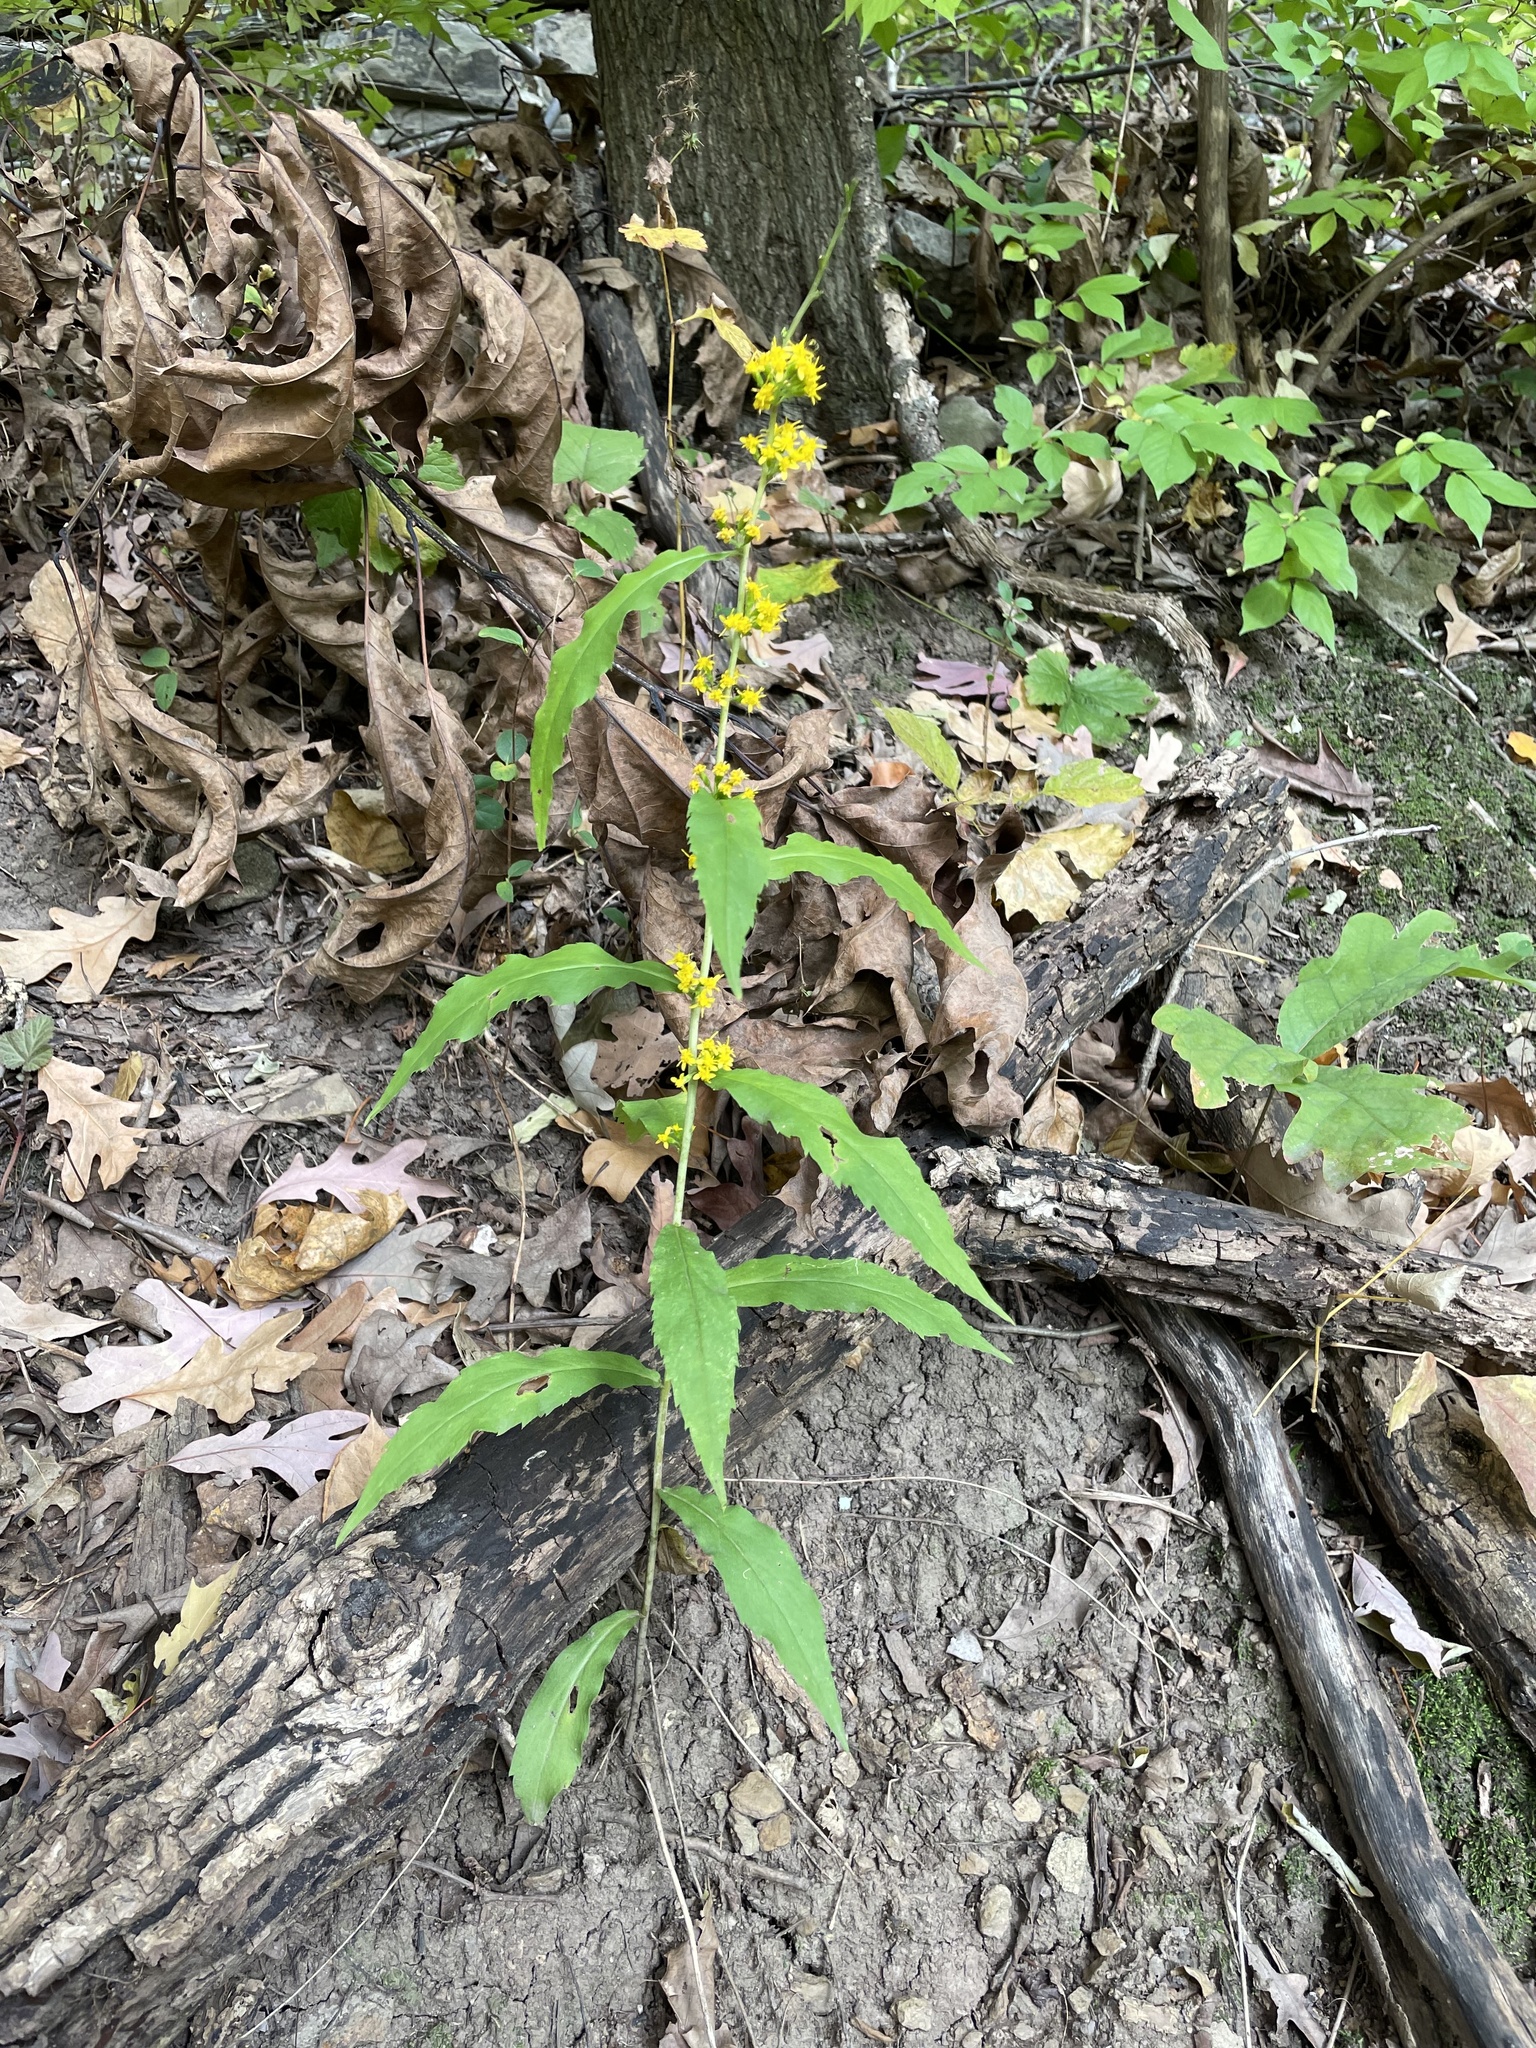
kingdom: Plantae
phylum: Tracheophyta
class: Magnoliopsida
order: Asterales
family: Asteraceae
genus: Solidago
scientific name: Solidago curtisii
